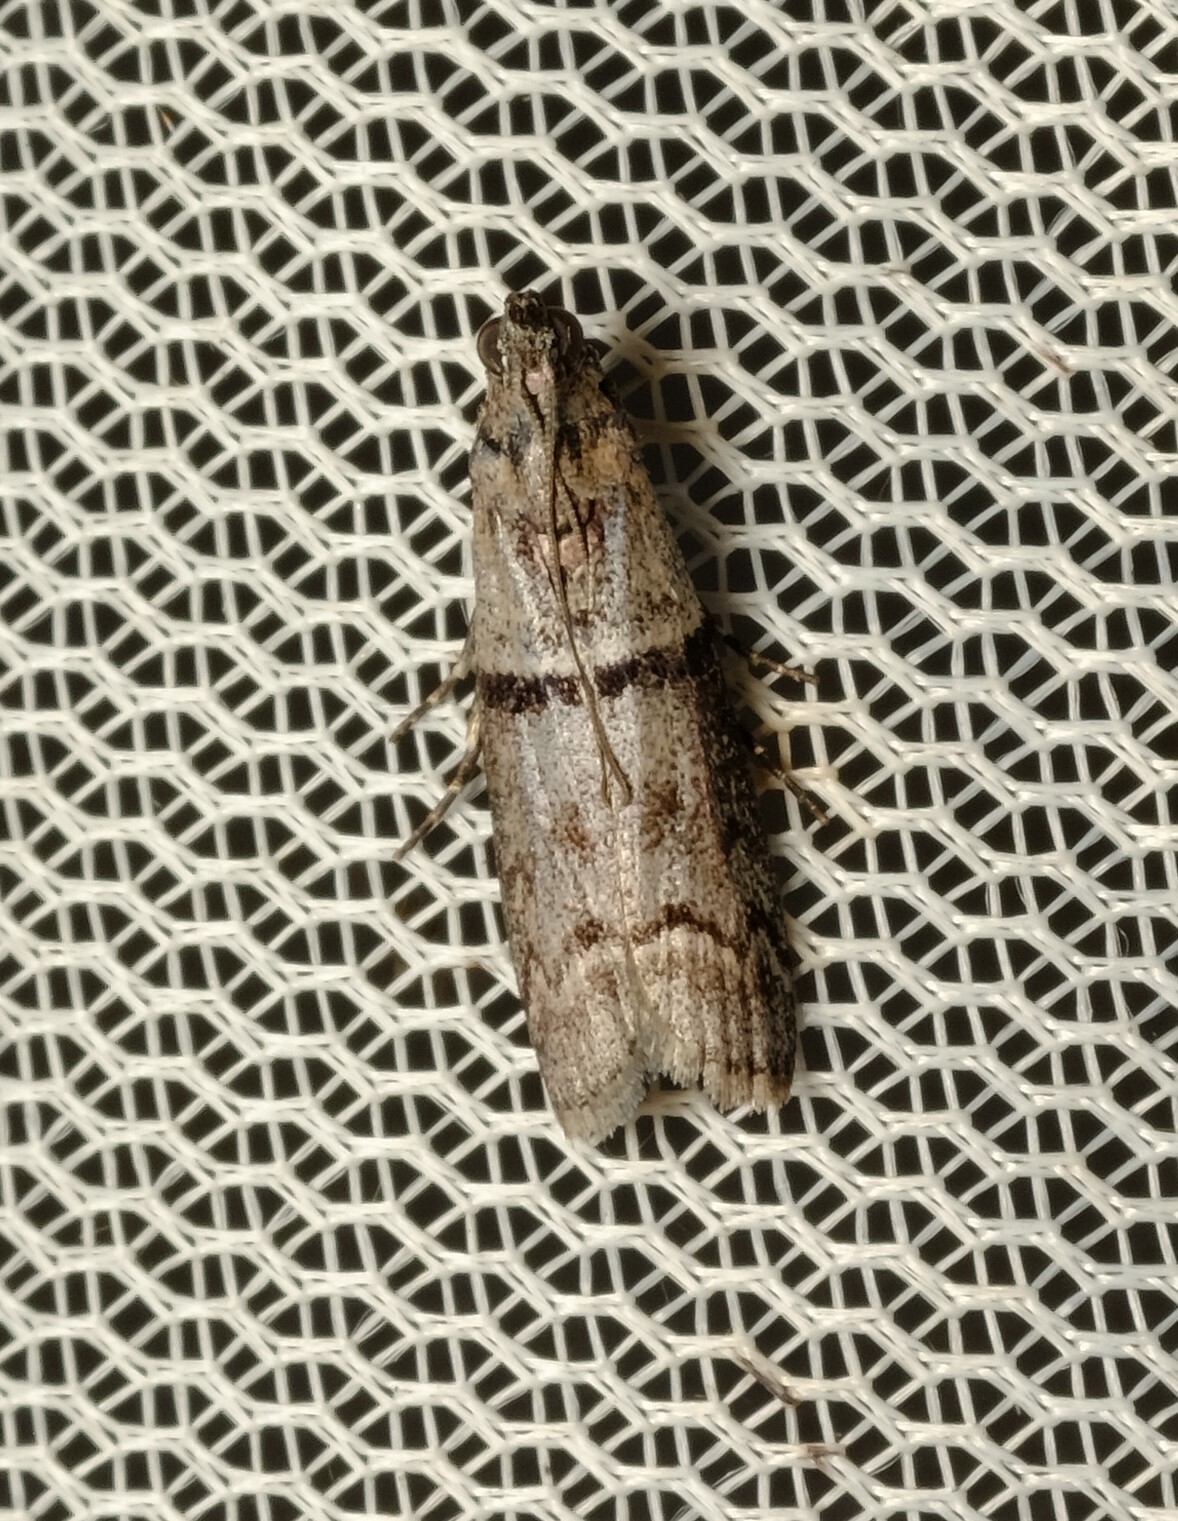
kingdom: Animalia
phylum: Arthropoda
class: Insecta
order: Lepidoptera
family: Pyralidae
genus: Cryptoblabes
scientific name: Cryptoblabes euraphella
